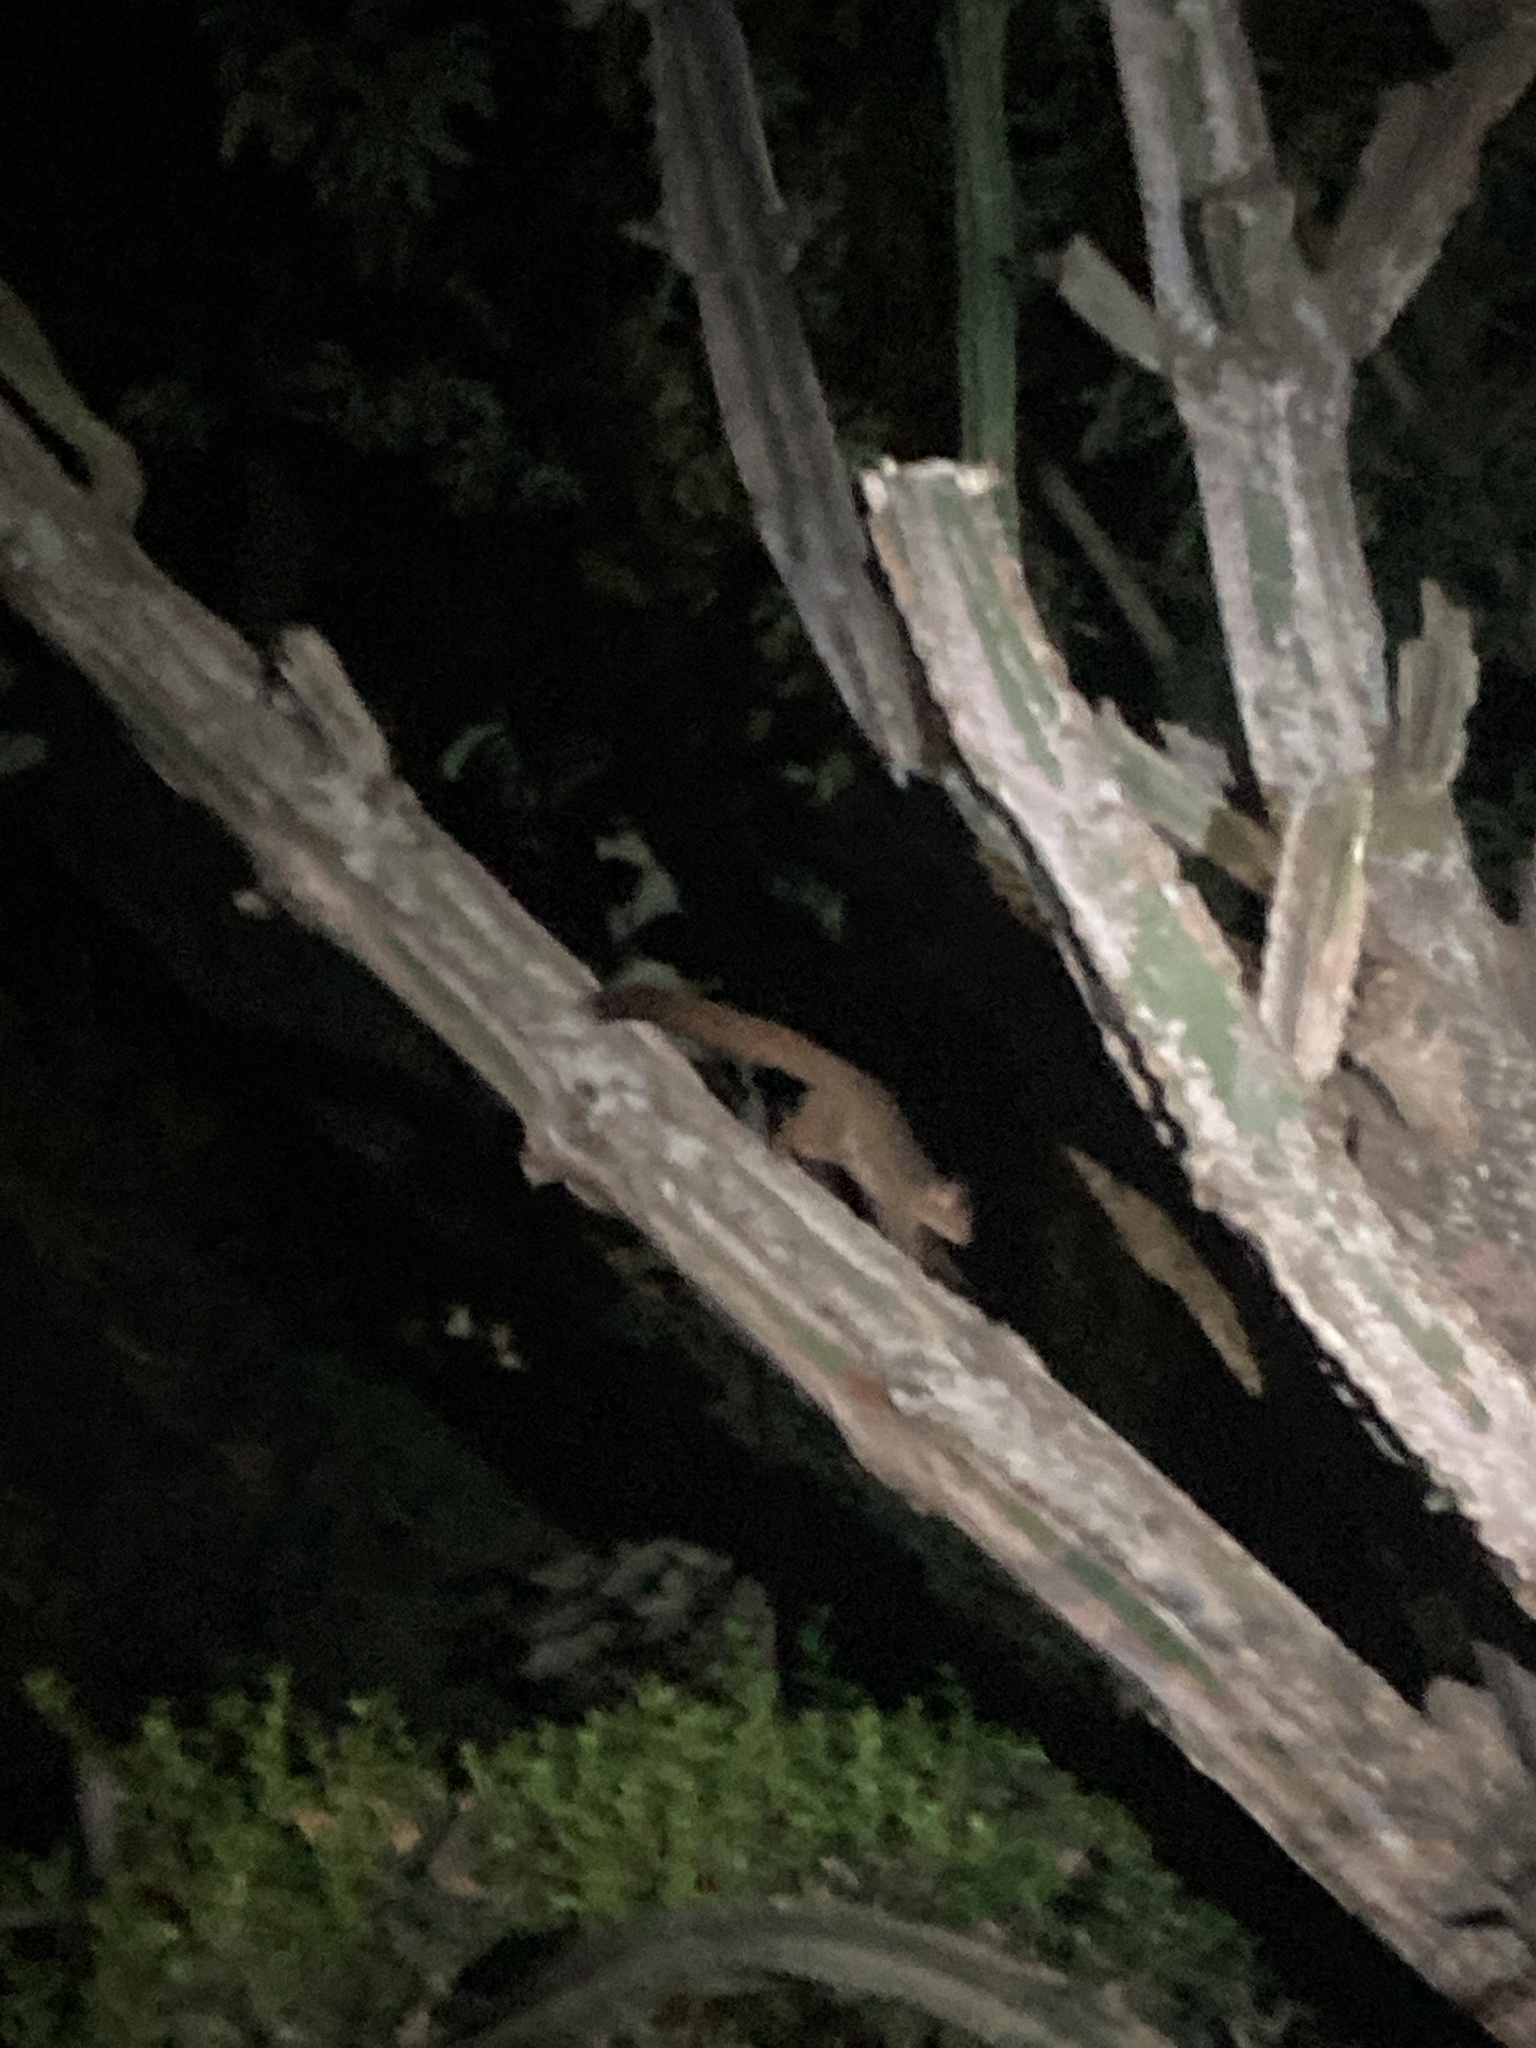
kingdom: Animalia
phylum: Chordata
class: Mammalia
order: Primates
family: Galagidae
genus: Otolemur
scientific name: Otolemur garnettii
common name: Northern greater galago
